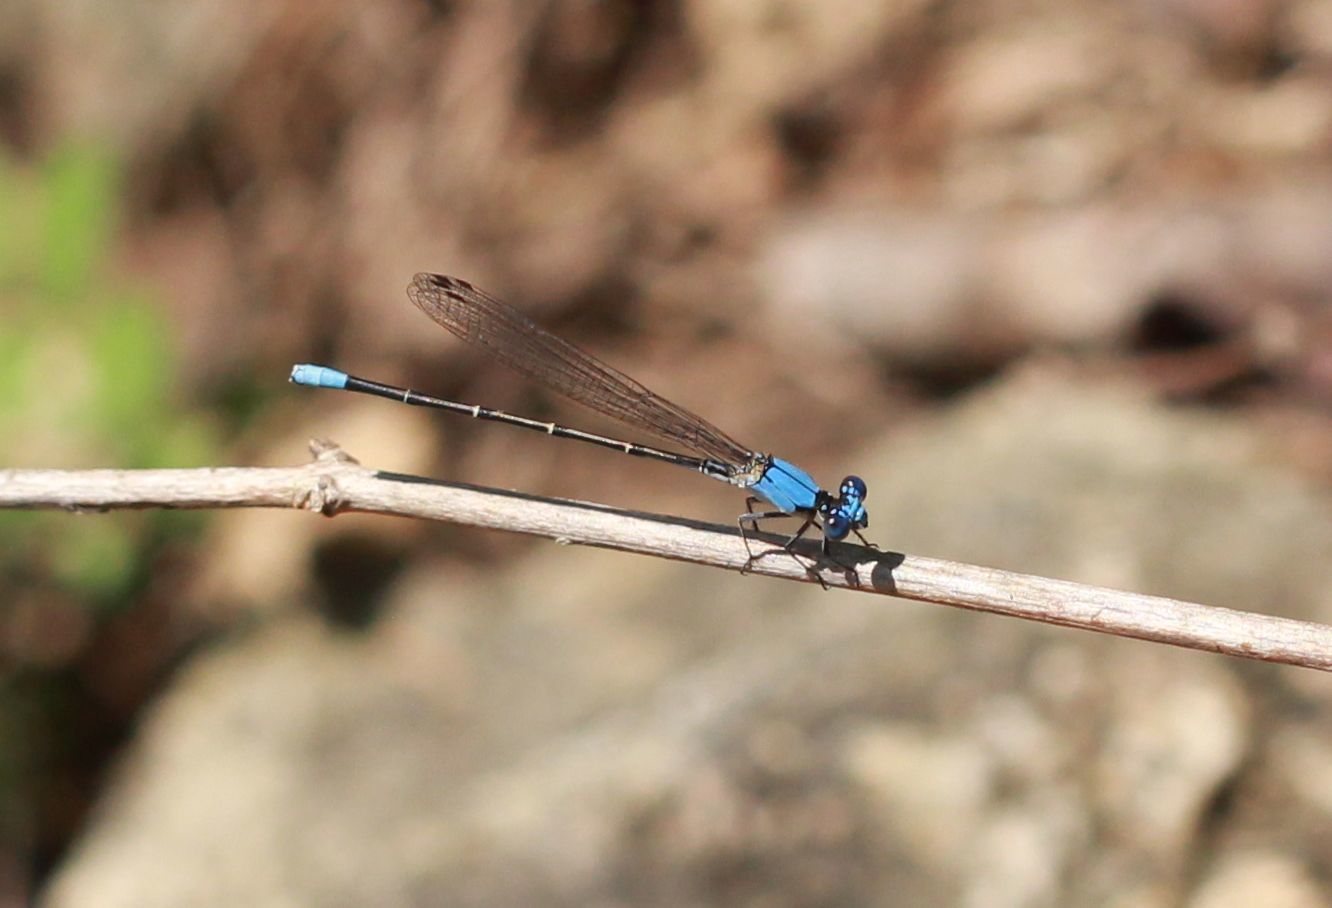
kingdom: Animalia
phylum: Arthropoda
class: Insecta
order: Odonata
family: Coenagrionidae
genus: Argia
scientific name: Argia apicalis
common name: Blue-fronted dancer
